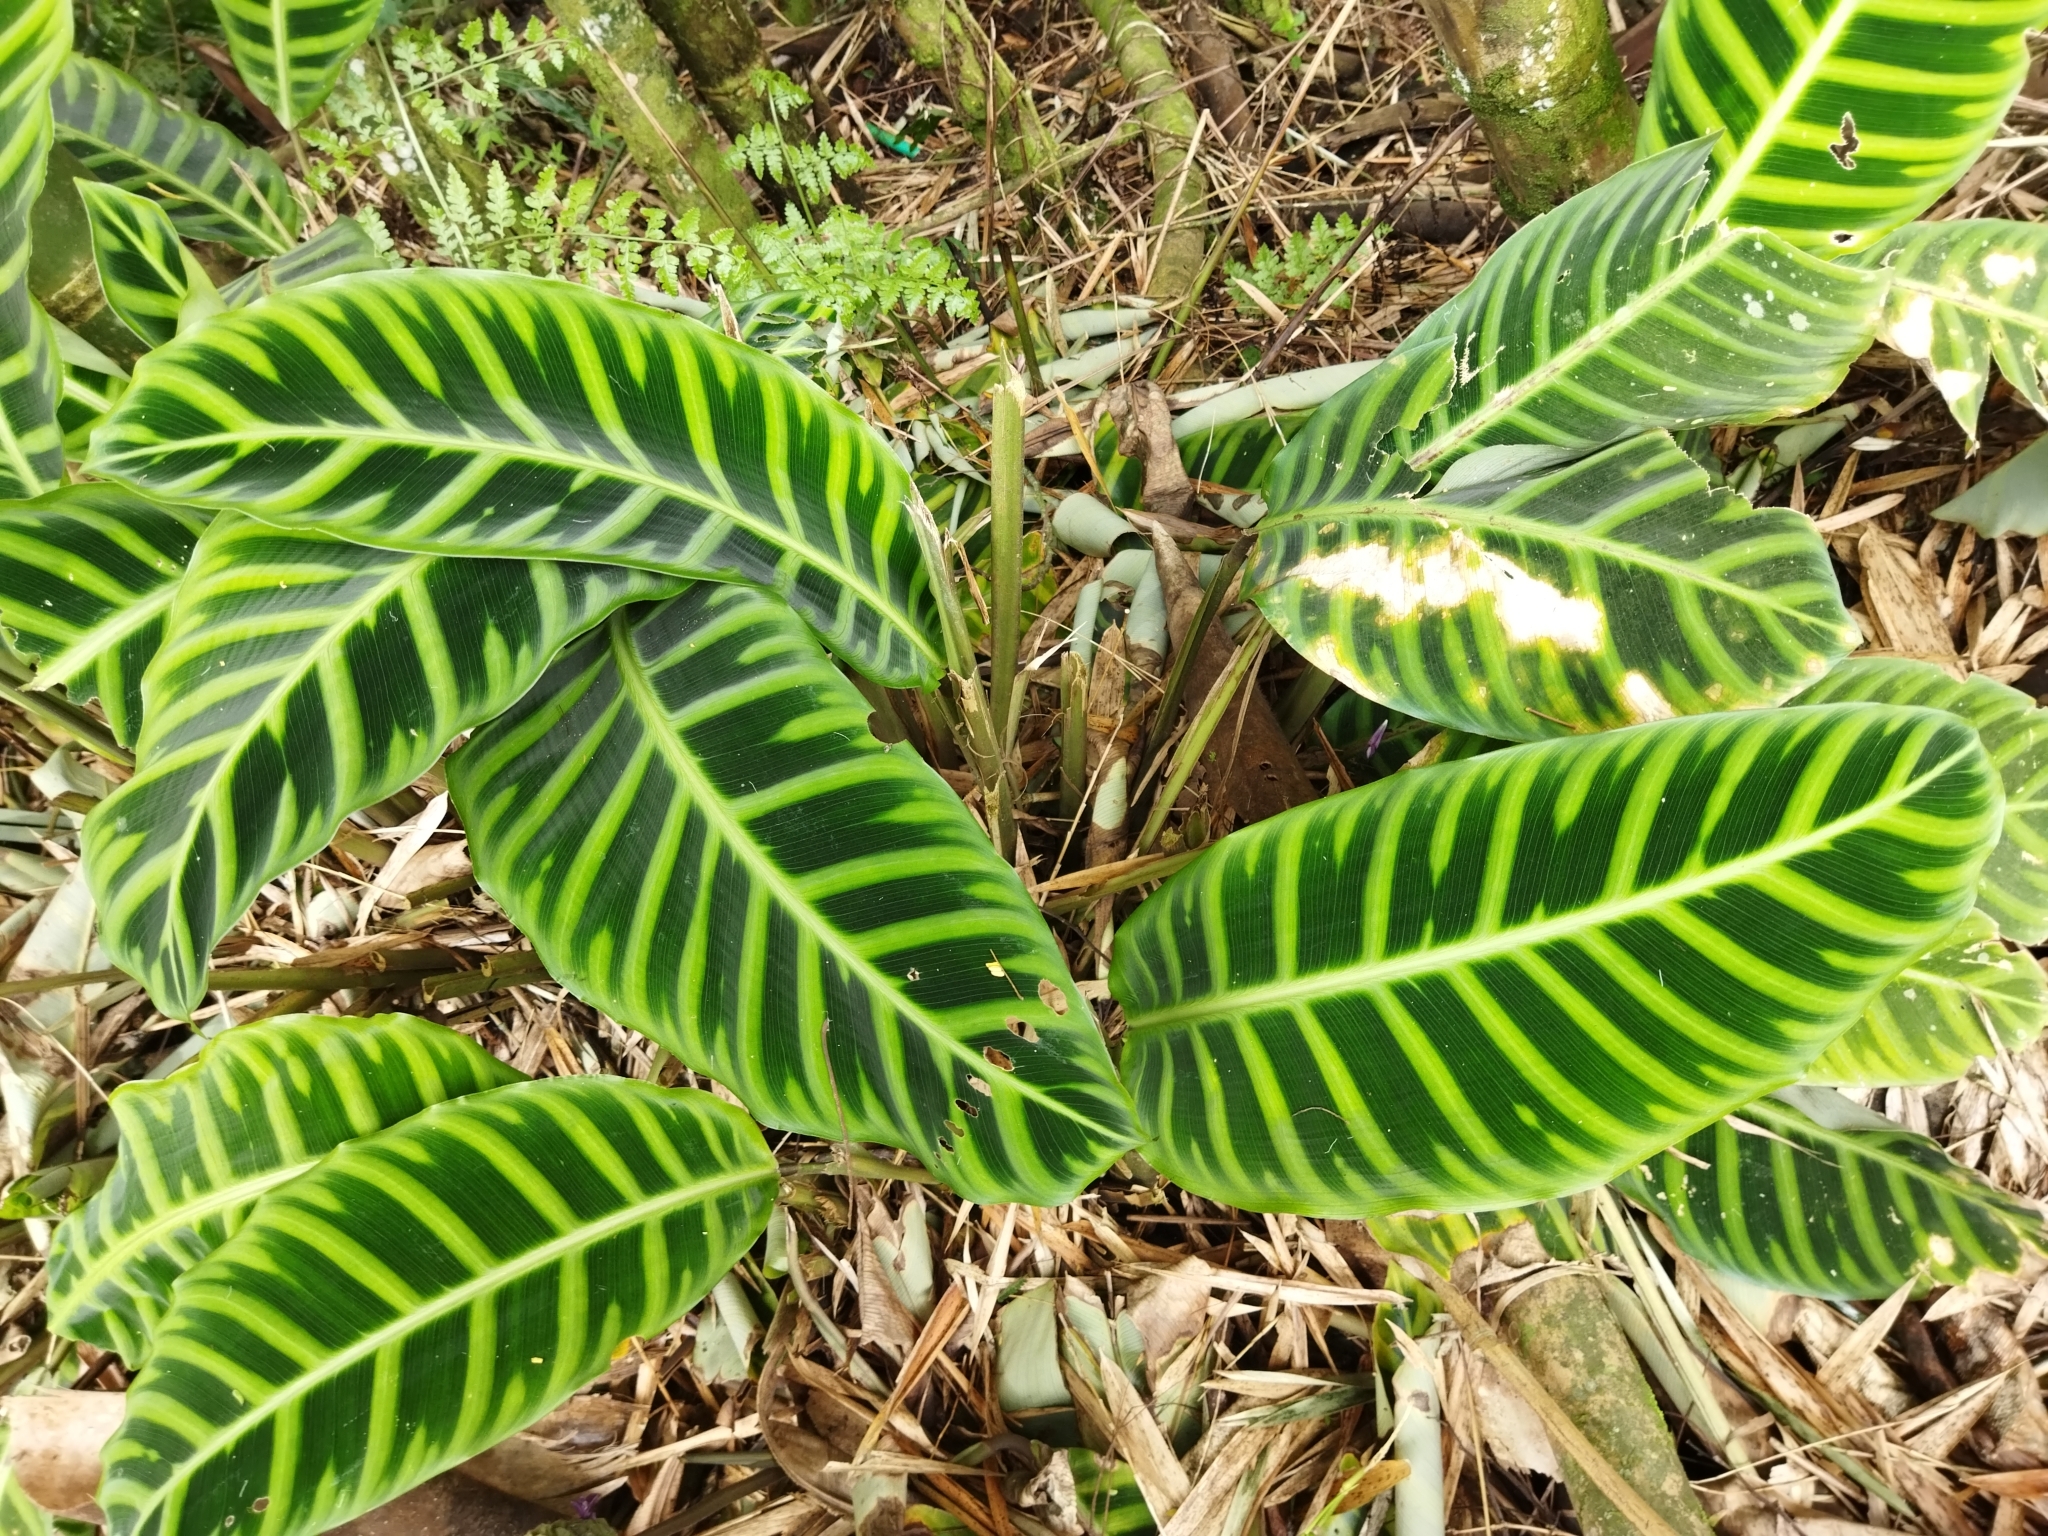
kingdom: Plantae
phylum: Tracheophyta
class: Liliopsida
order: Zingiberales
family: Marantaceae
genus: Goeppertia
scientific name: Goeppertia zebrina
